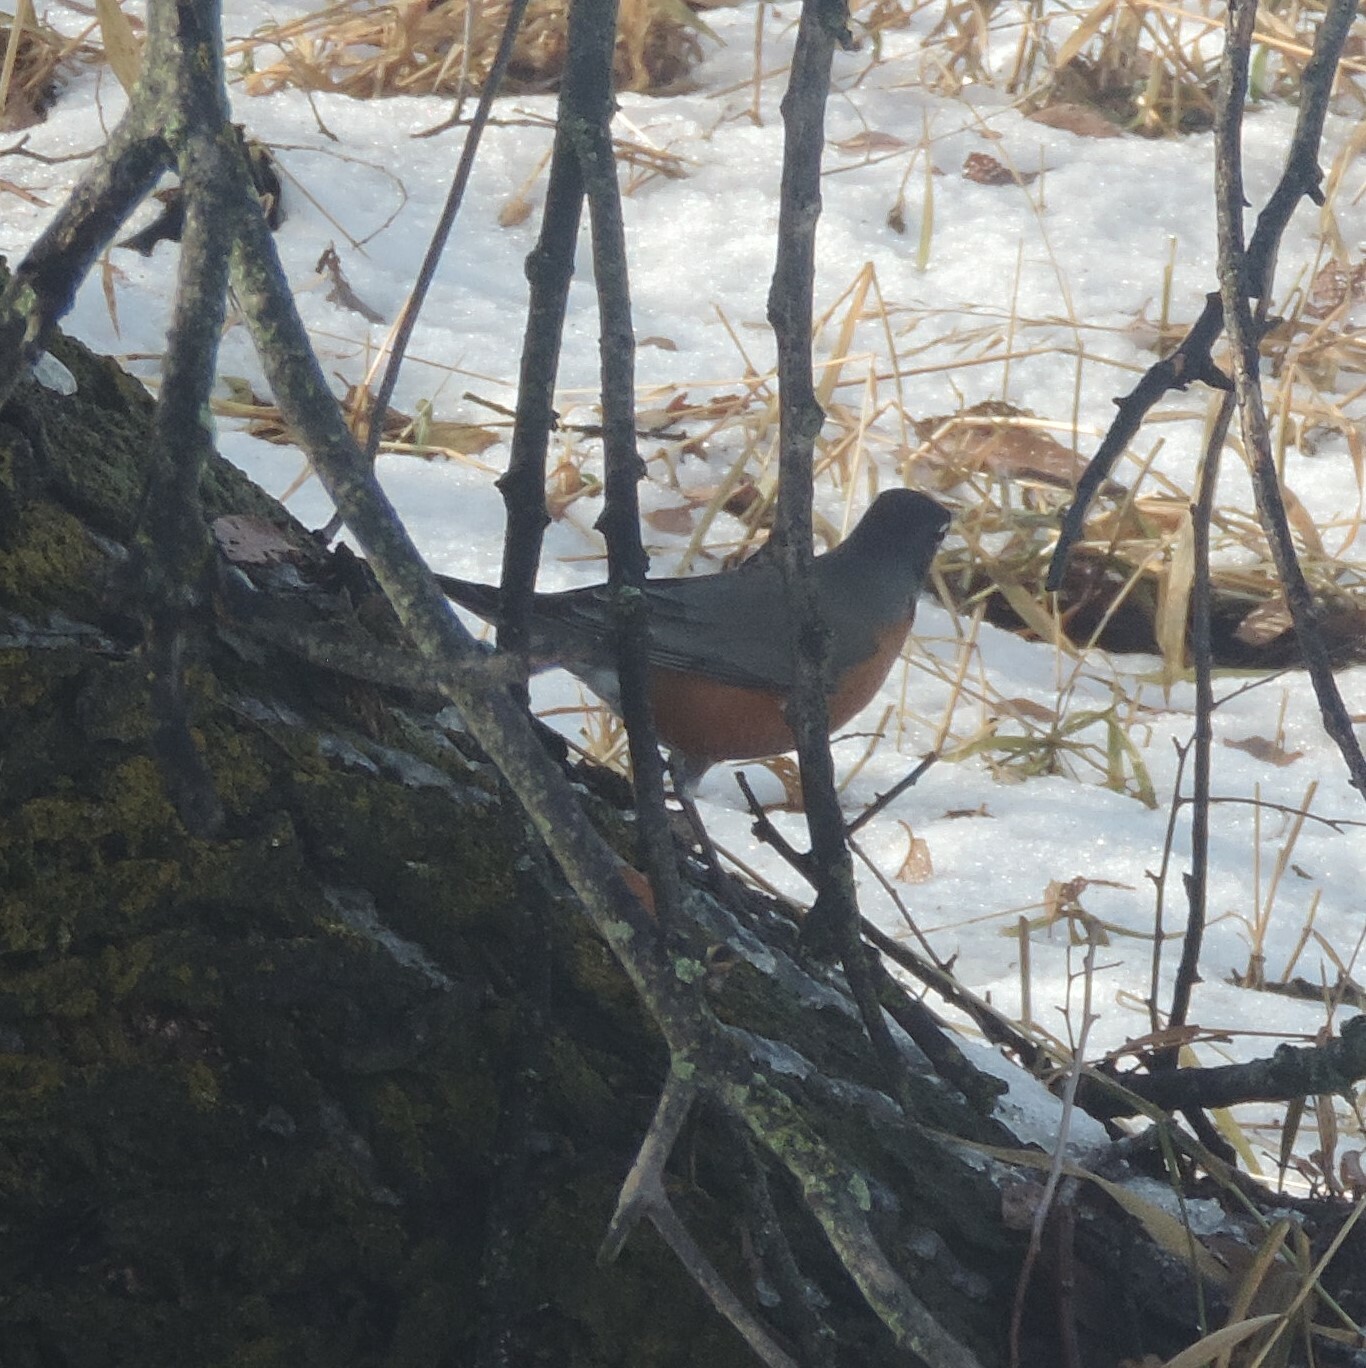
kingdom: Animalia
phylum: Chordata
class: Aves
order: Passeriformes
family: Turdidae
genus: Turdus
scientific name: Turdus migratorius
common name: American robin
